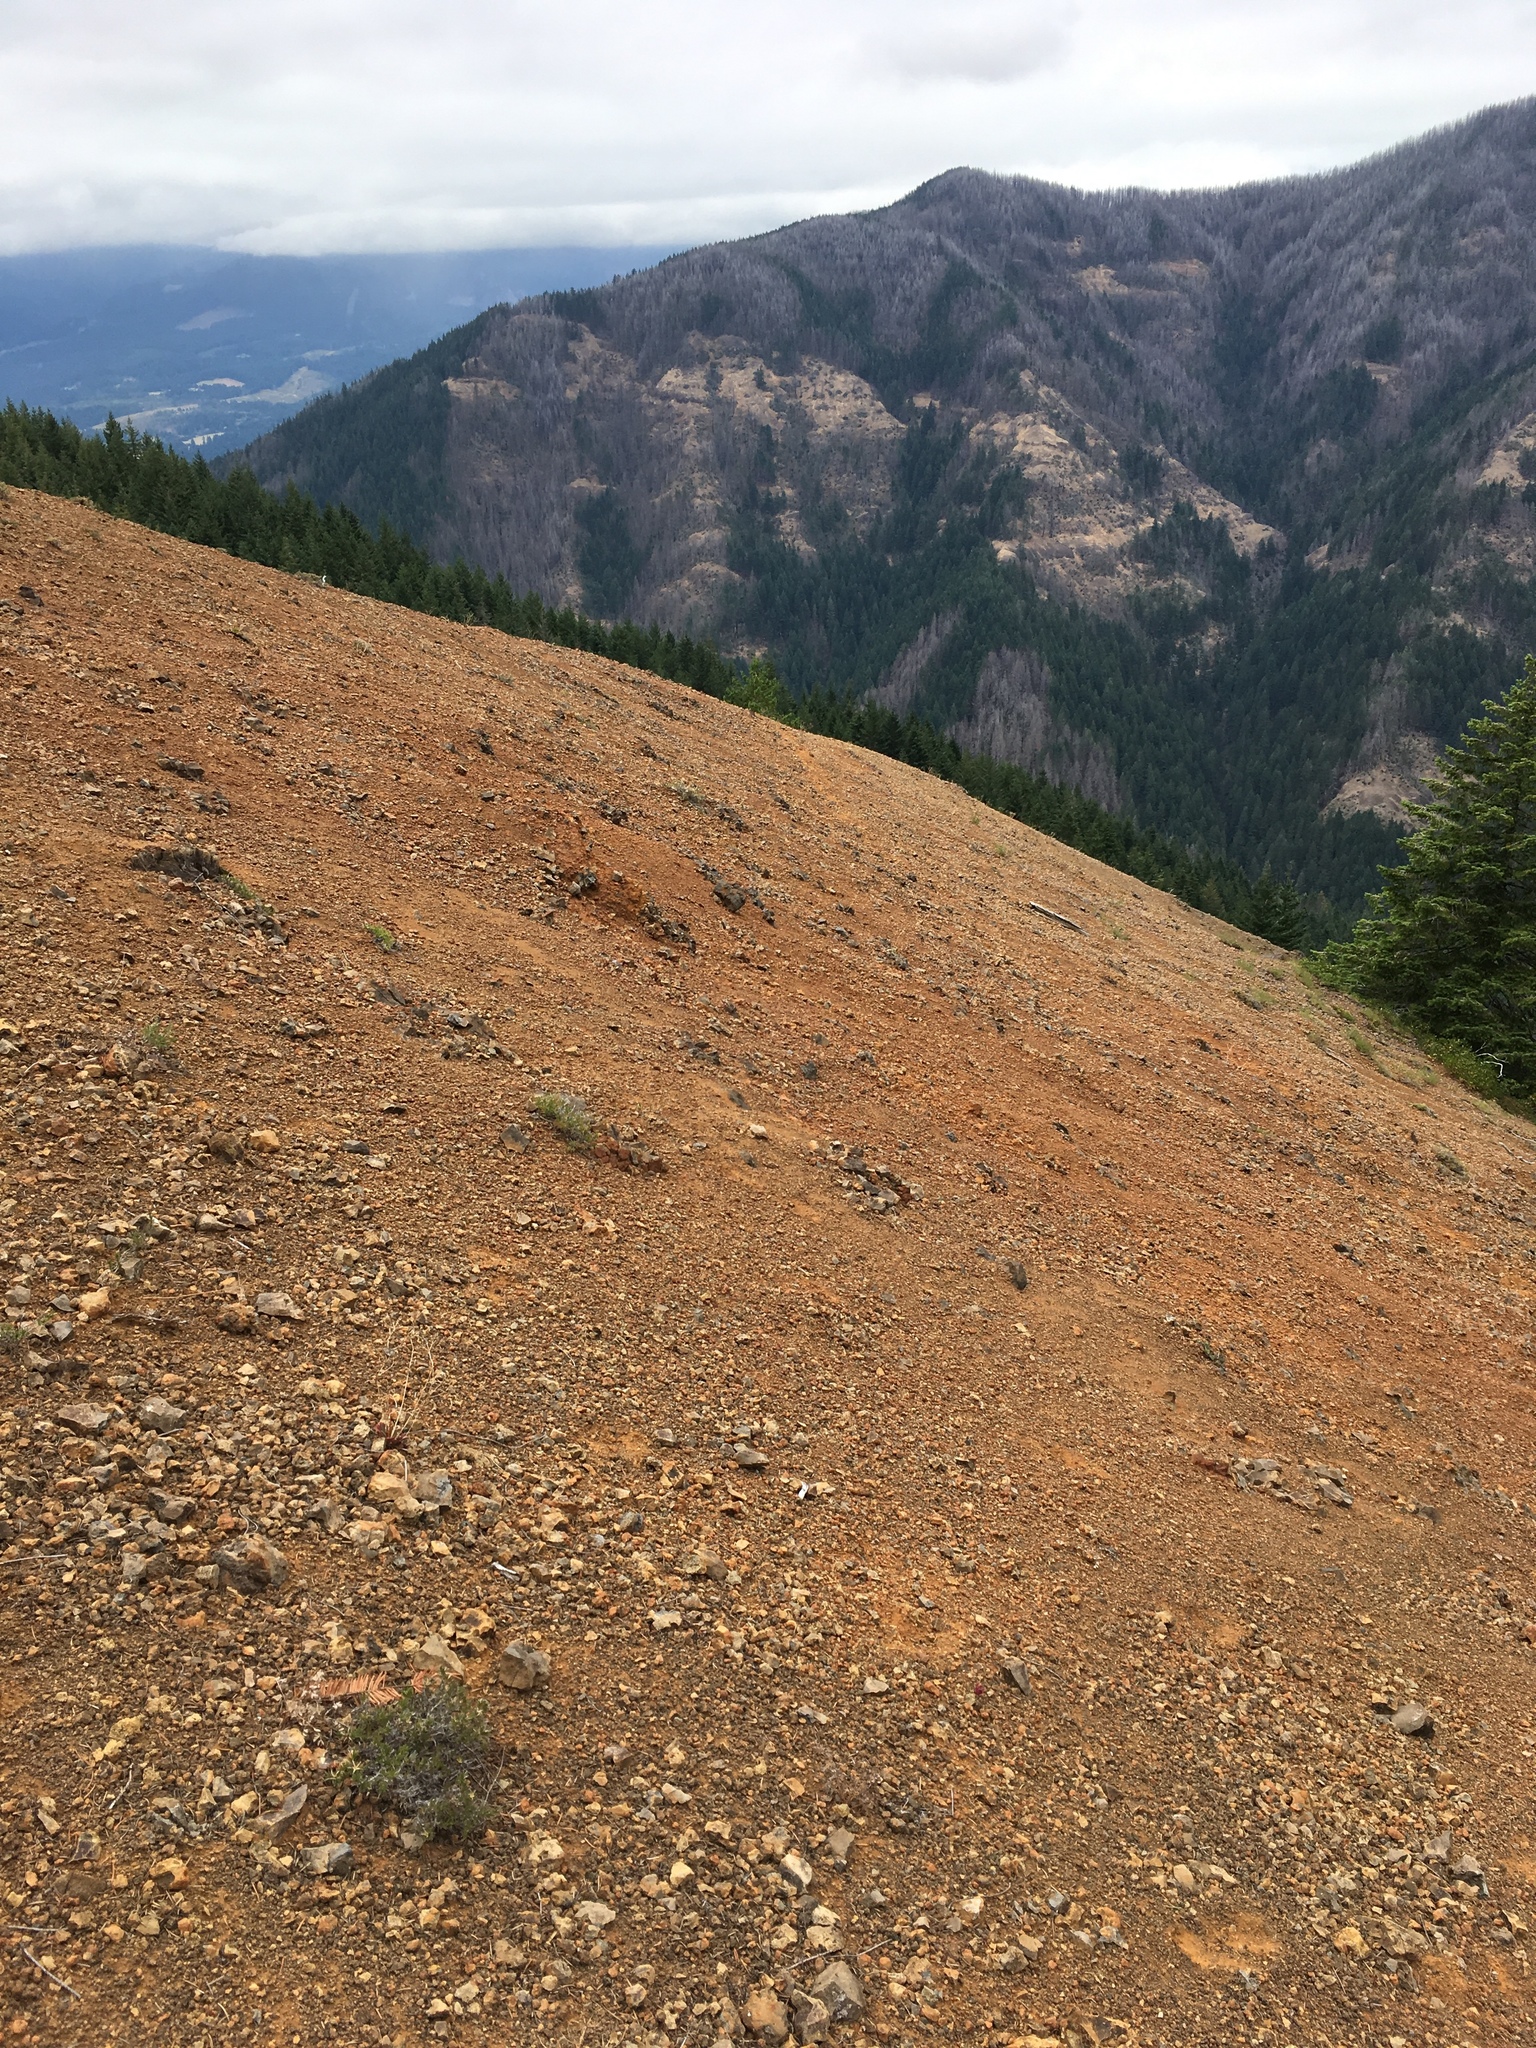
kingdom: Plantae
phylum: Tracheophyta
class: Magnoliopsida
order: Caryophyllales
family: Montiaceae
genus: Lewisia
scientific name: Lewisia columbiana
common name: Columbia lewisia
